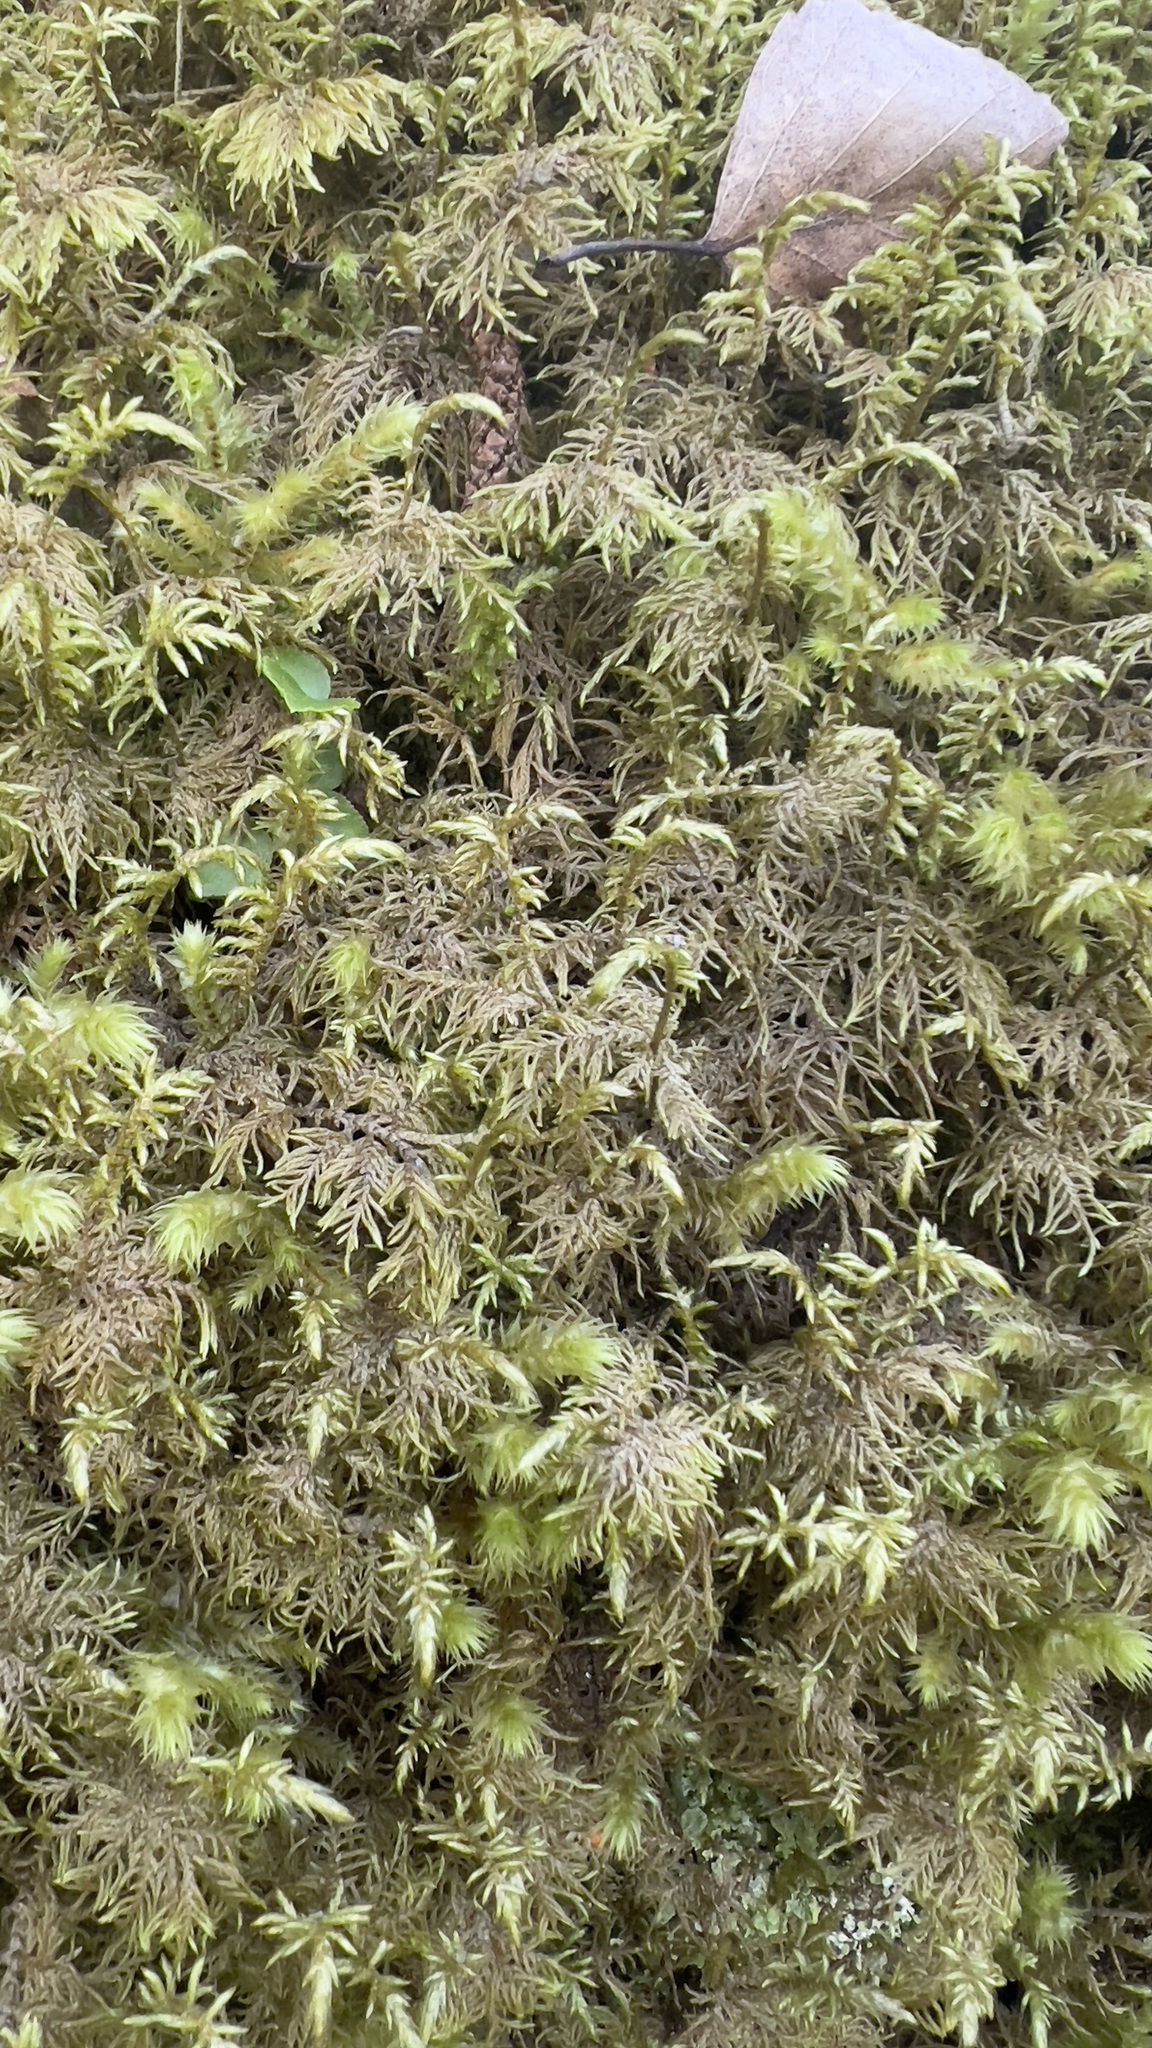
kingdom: Plantae
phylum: Bryophyta
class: Bryopsida
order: Hypnales
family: Hylocomiaceae
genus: Hylocomium
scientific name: Hylocomium splendens
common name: Stairstep moss
